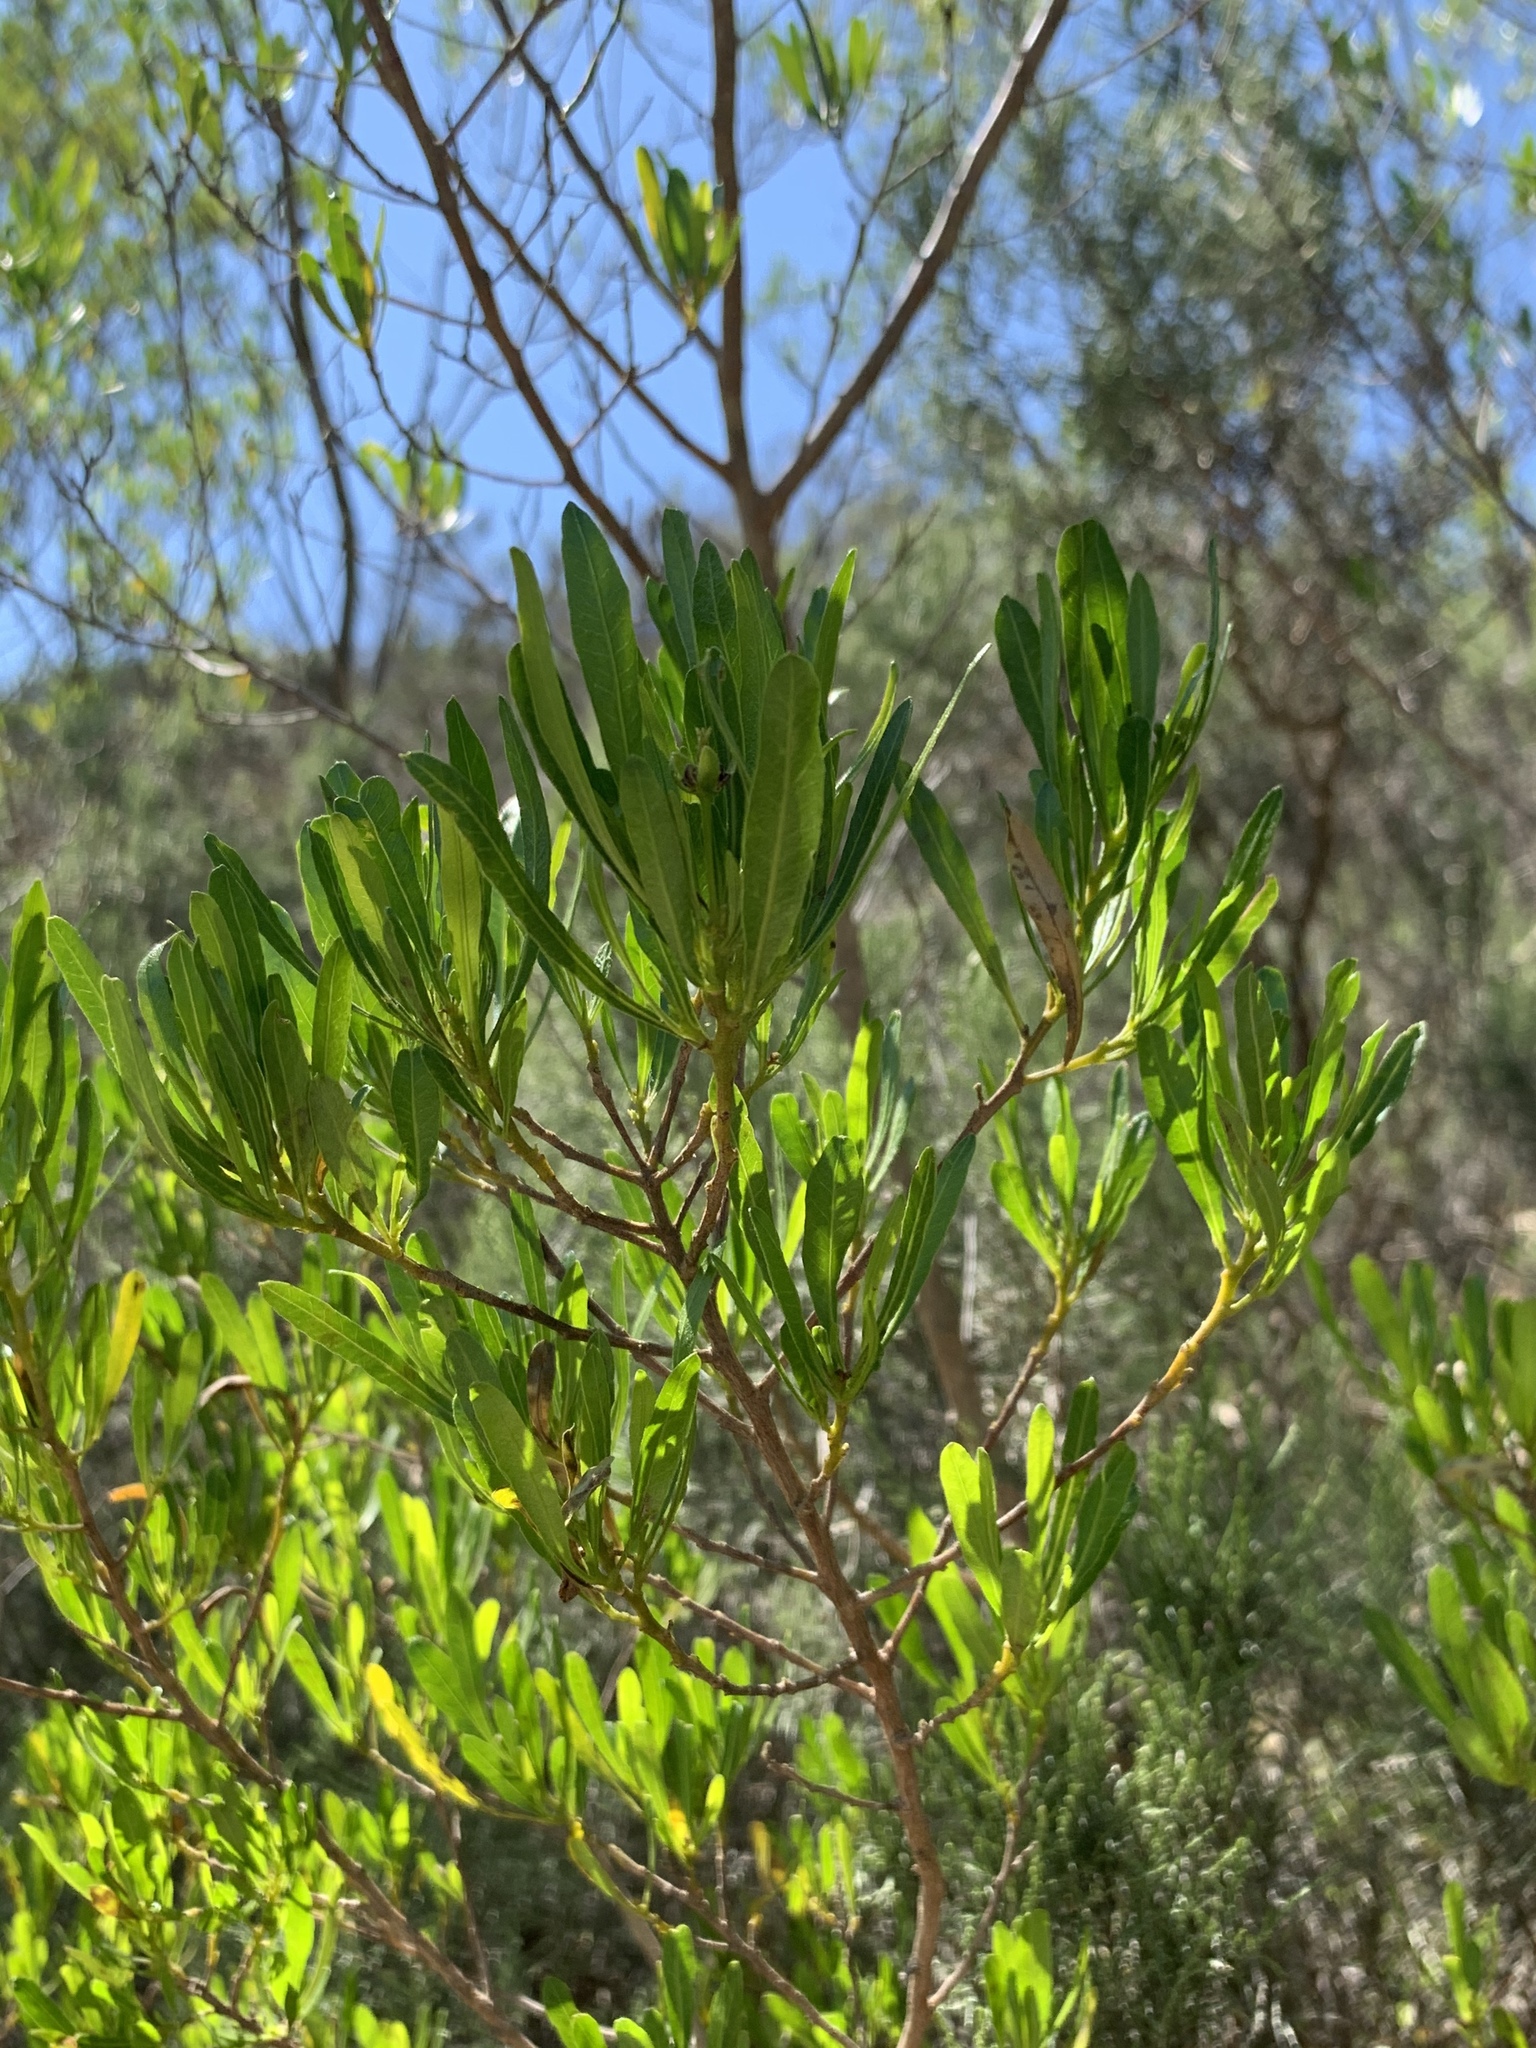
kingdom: Plantae
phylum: Tracheophyta
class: Magnoliopsida
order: Sapindales
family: Sapindaceae
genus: Dodonaea
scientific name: Dodonaea viscosa
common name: Hopbush
